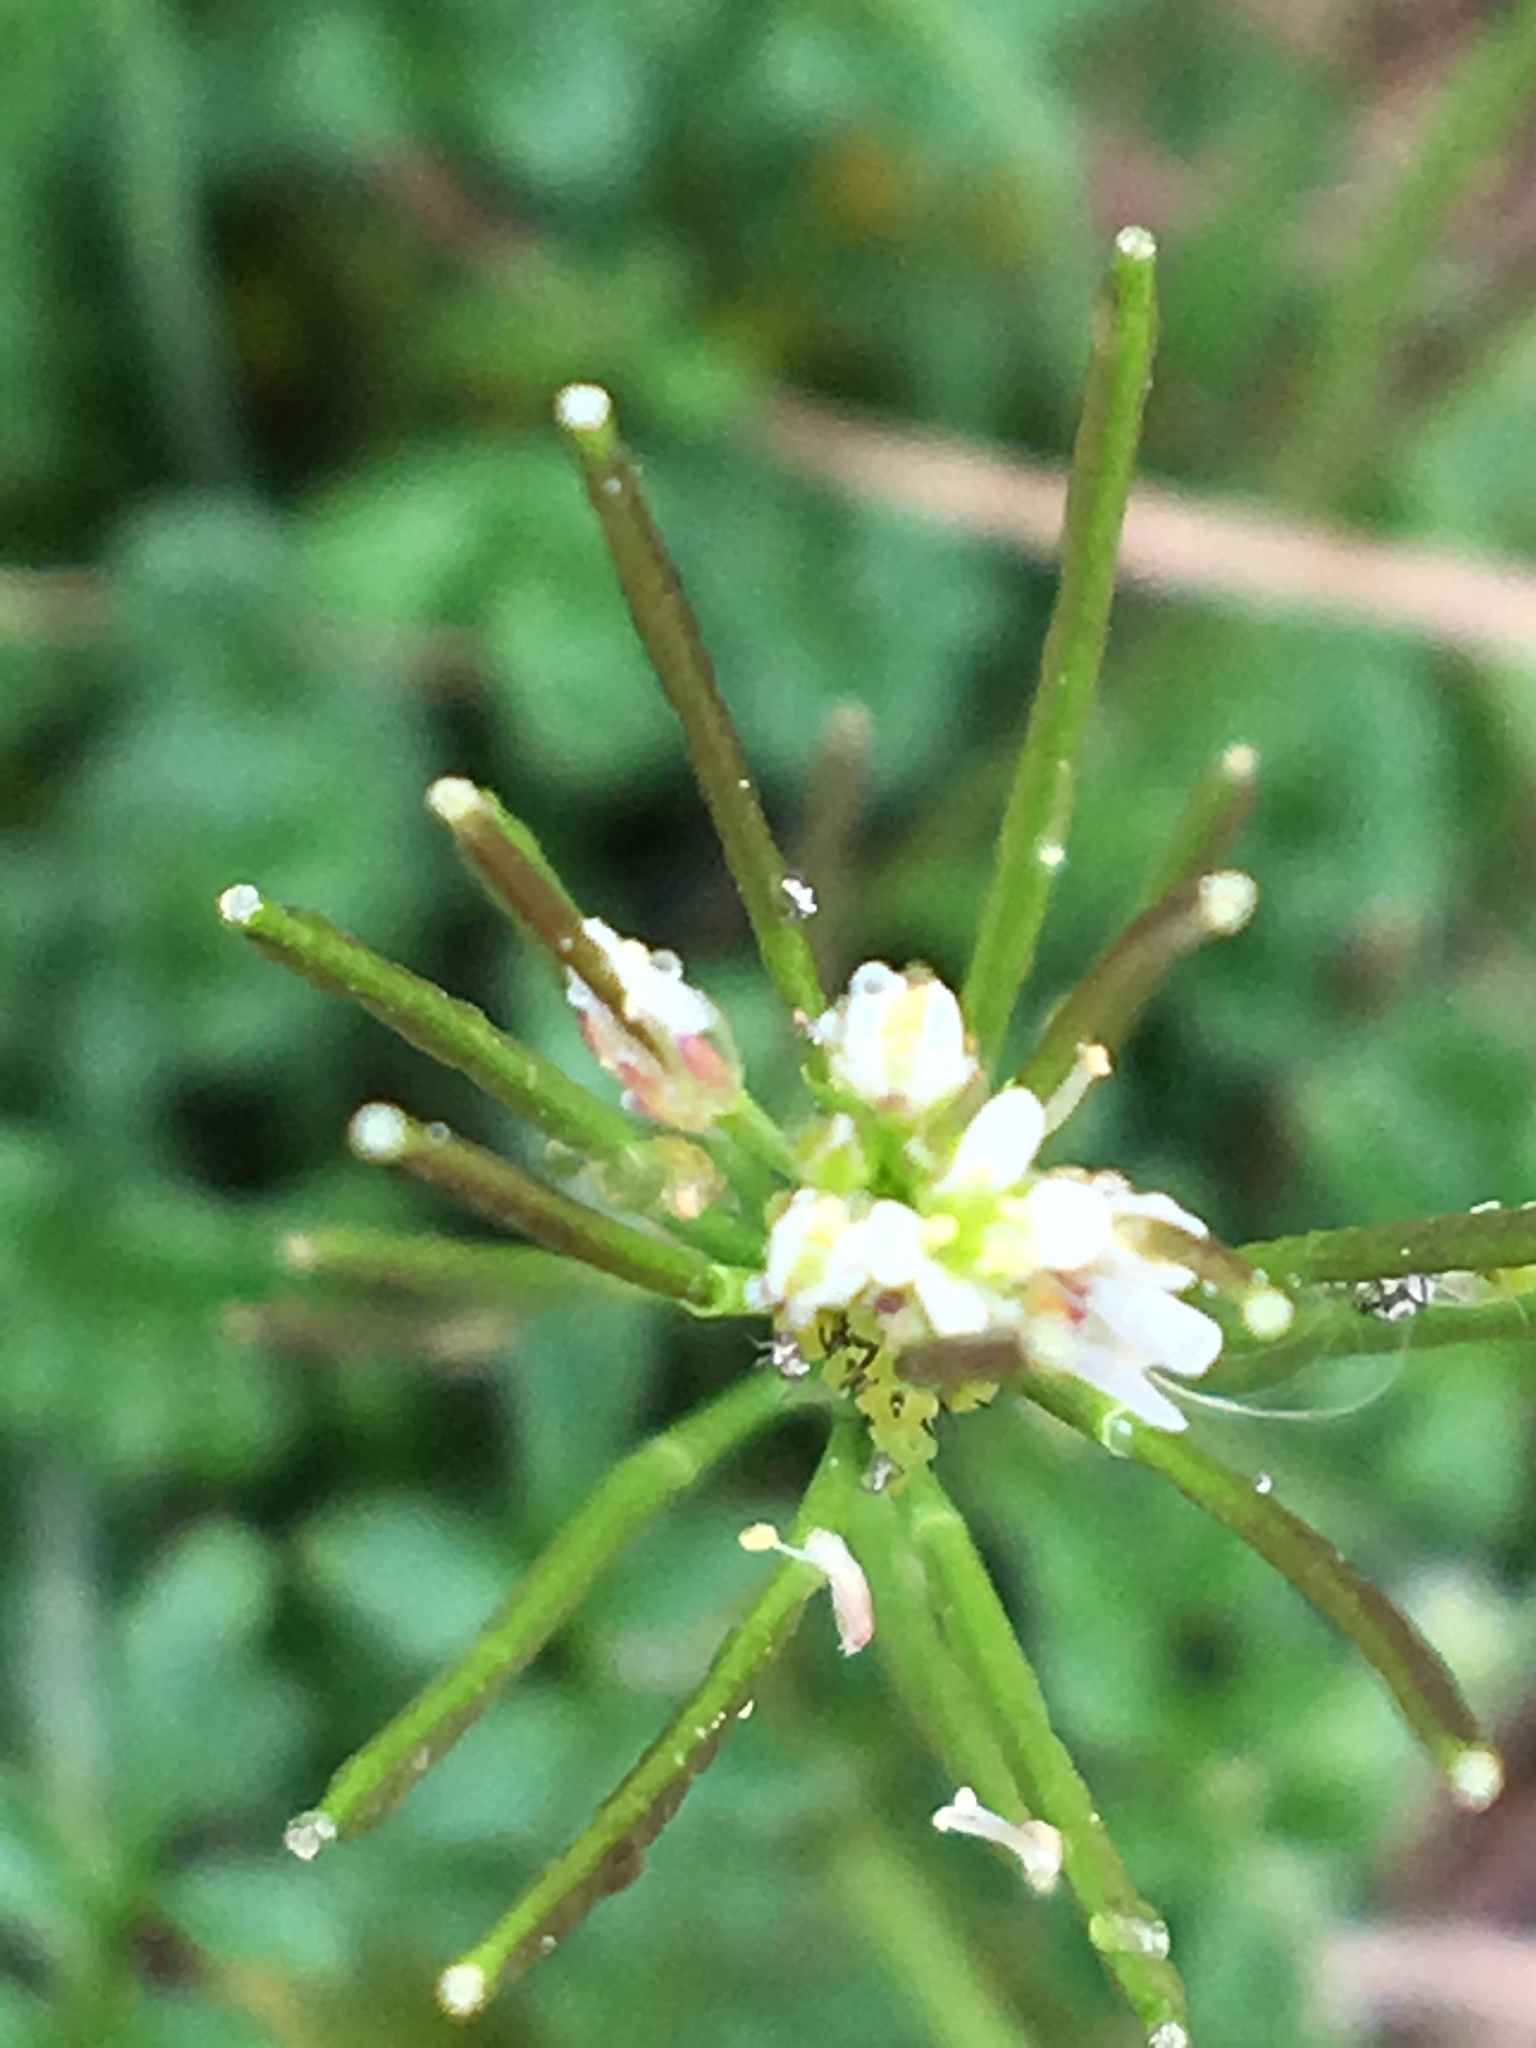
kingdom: Plantae
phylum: Tracheophyta
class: Magnoliopsida
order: Brassicales
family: Brassicaceae
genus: Cardamine
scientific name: Cardamine hirsuta
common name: Hairy bittercress
